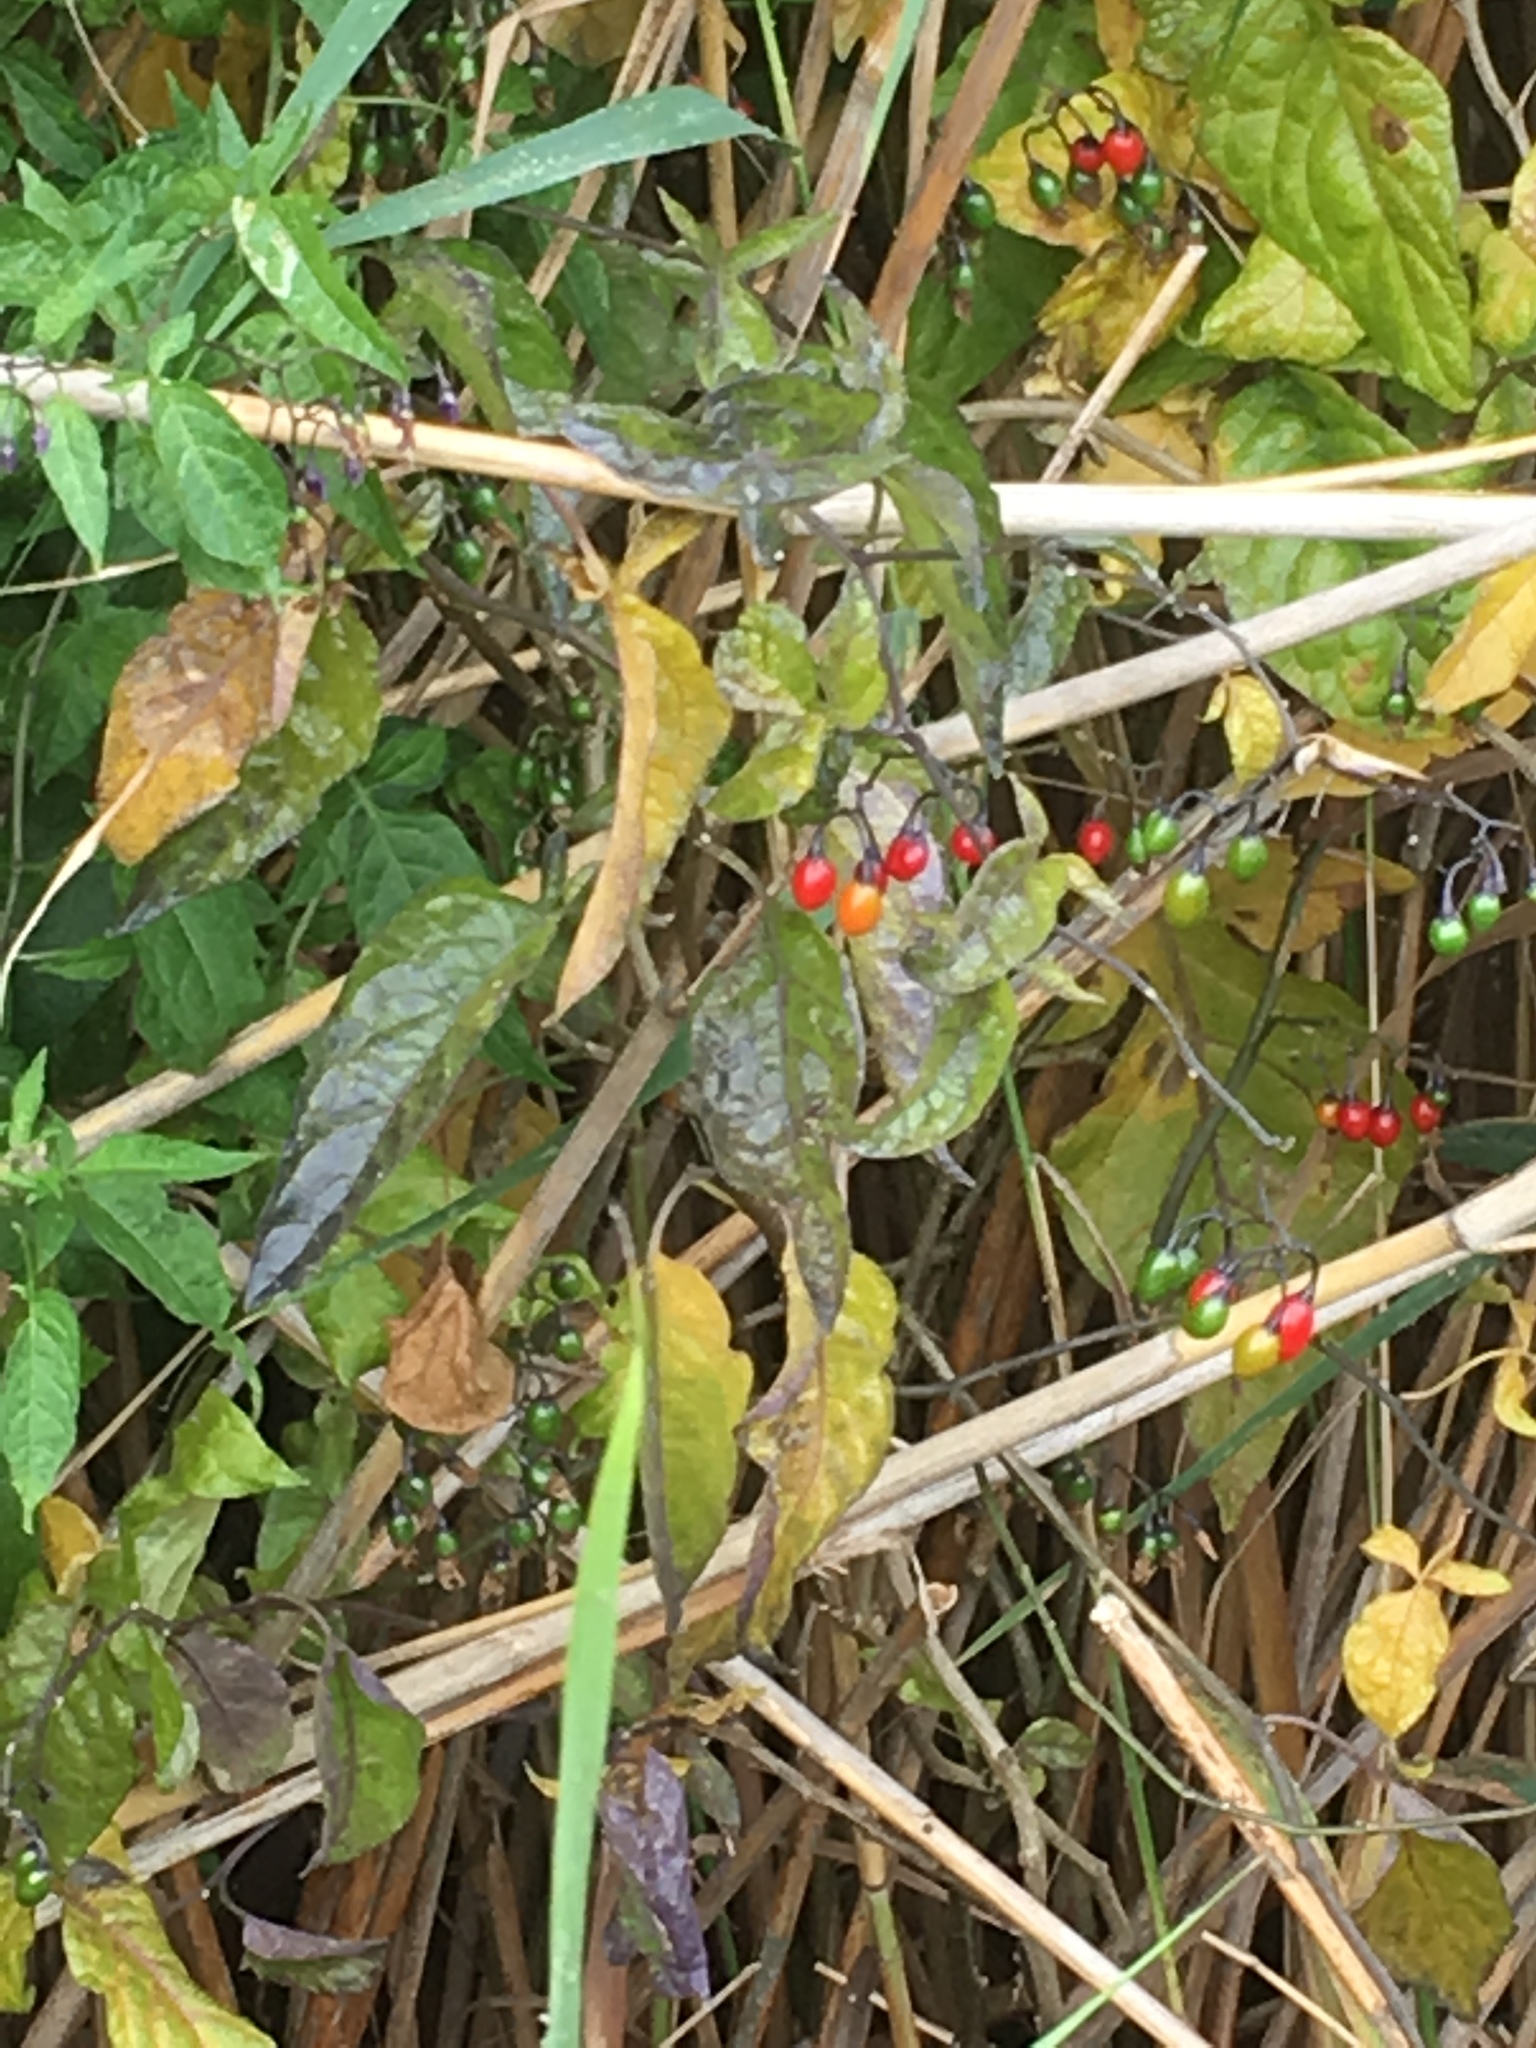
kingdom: Plantae
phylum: Tracheophyta
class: Magnoliopsida
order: Solanales
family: Solanaceae
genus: Solanum
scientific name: Solanum dulcamara
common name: Climbing nightshade
